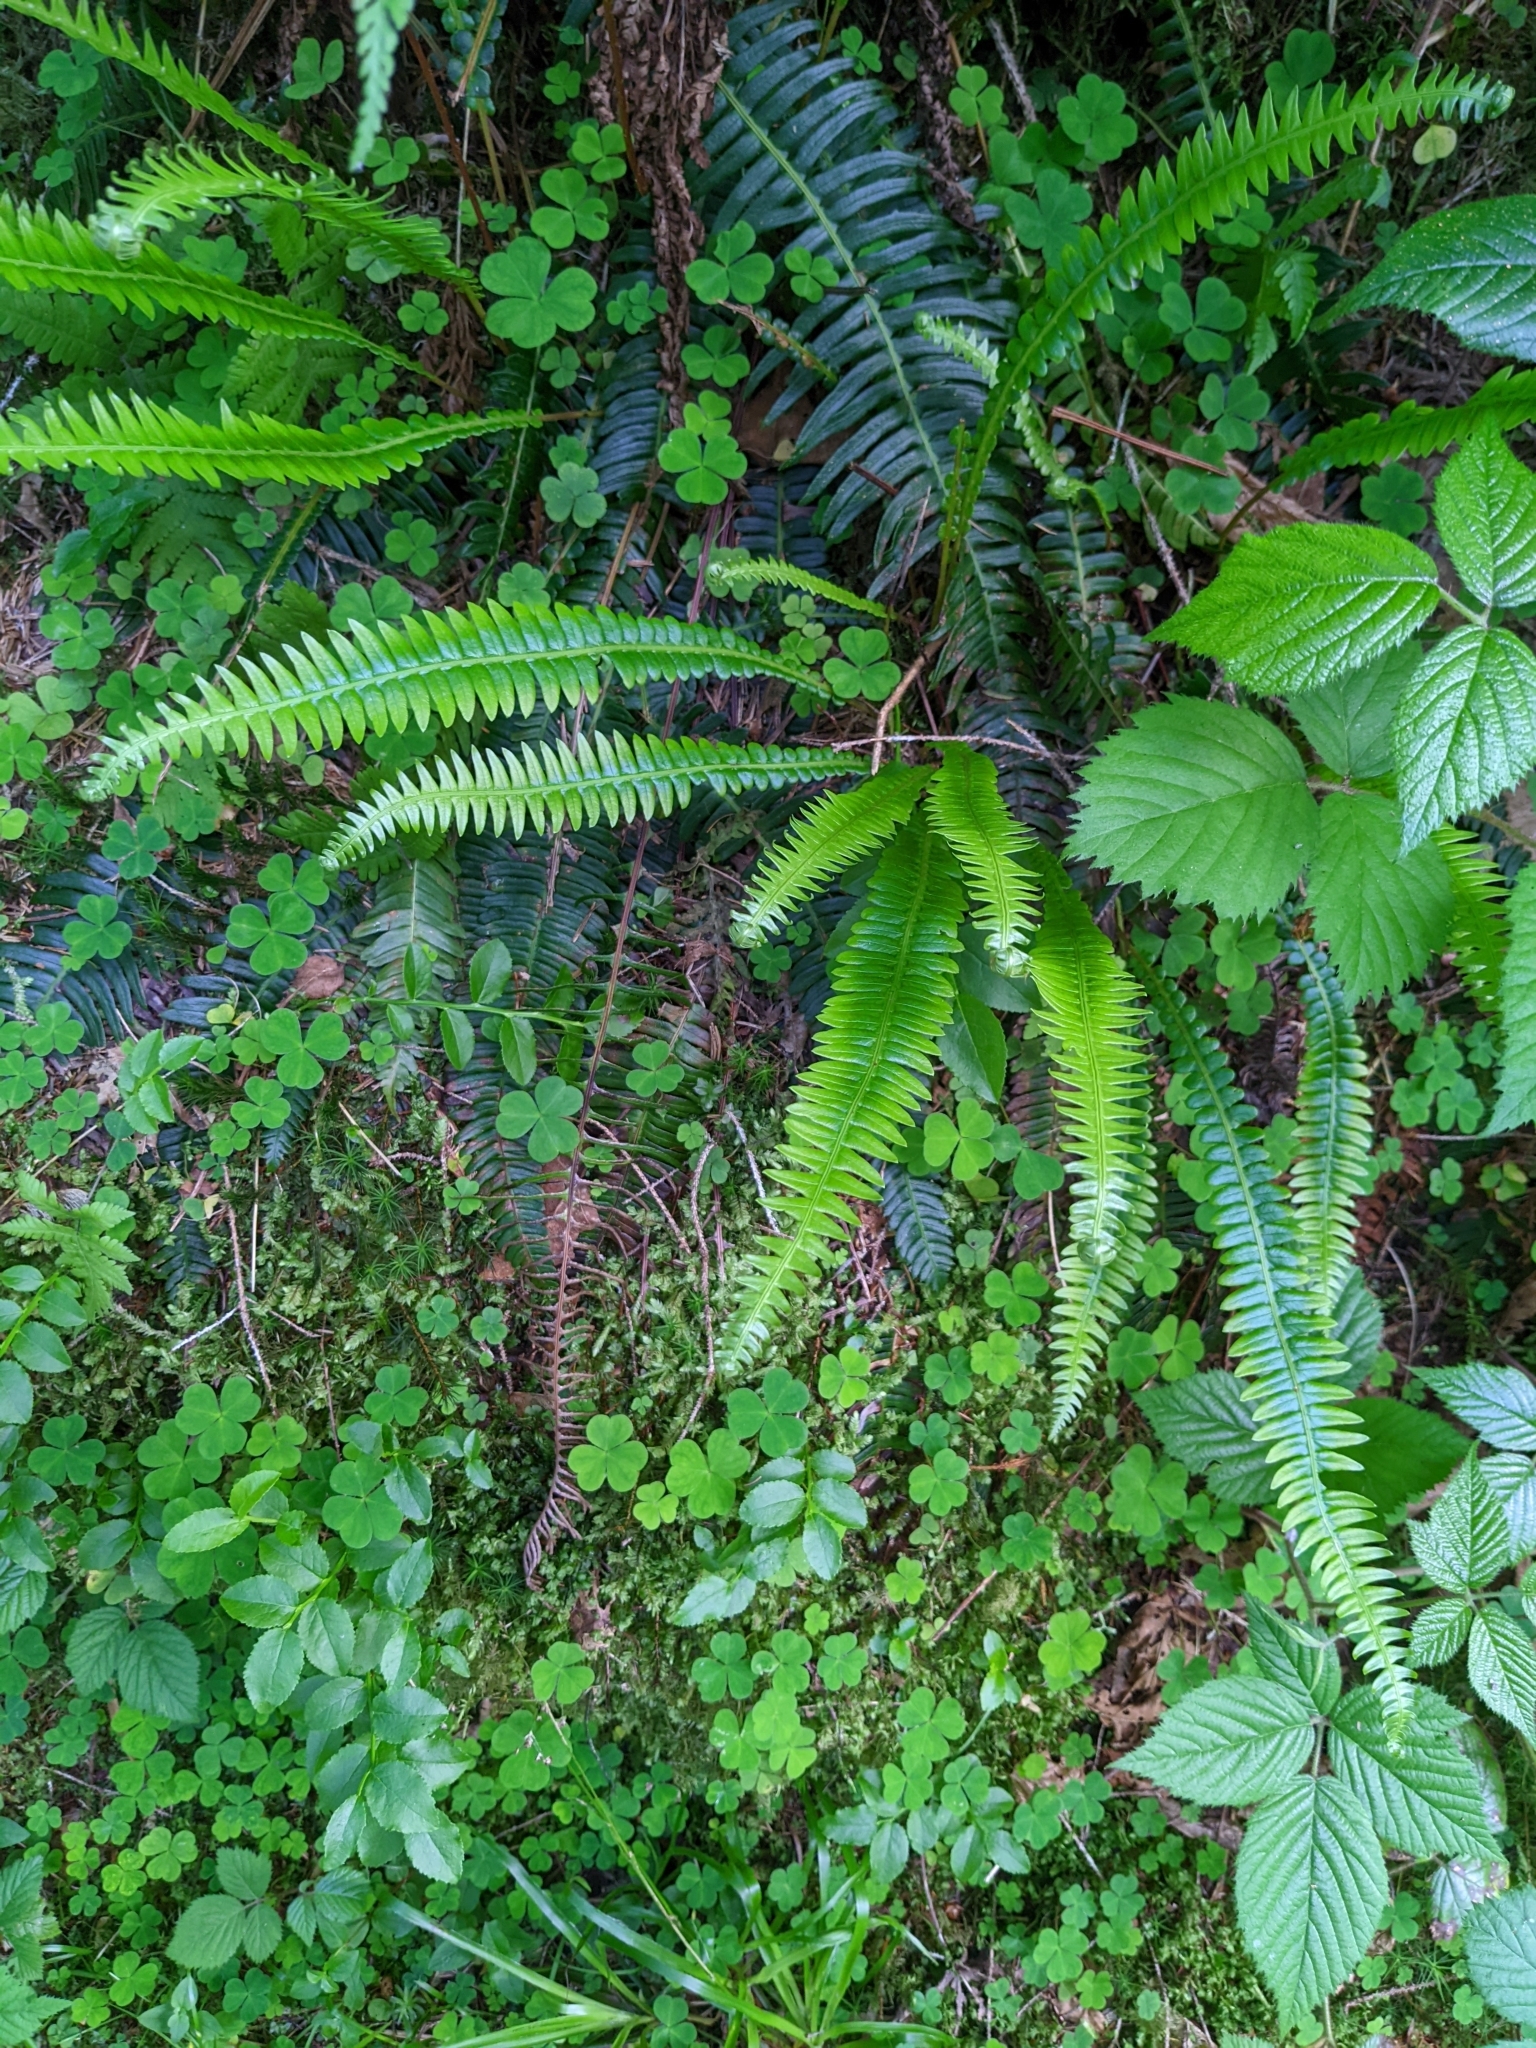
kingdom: Plantae
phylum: Tracheophyta
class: Polypodiopsida
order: Polypodiales
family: Blechnaceae
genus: Struthiopteris
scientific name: Struthiopteris spicant
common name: Deer fern
